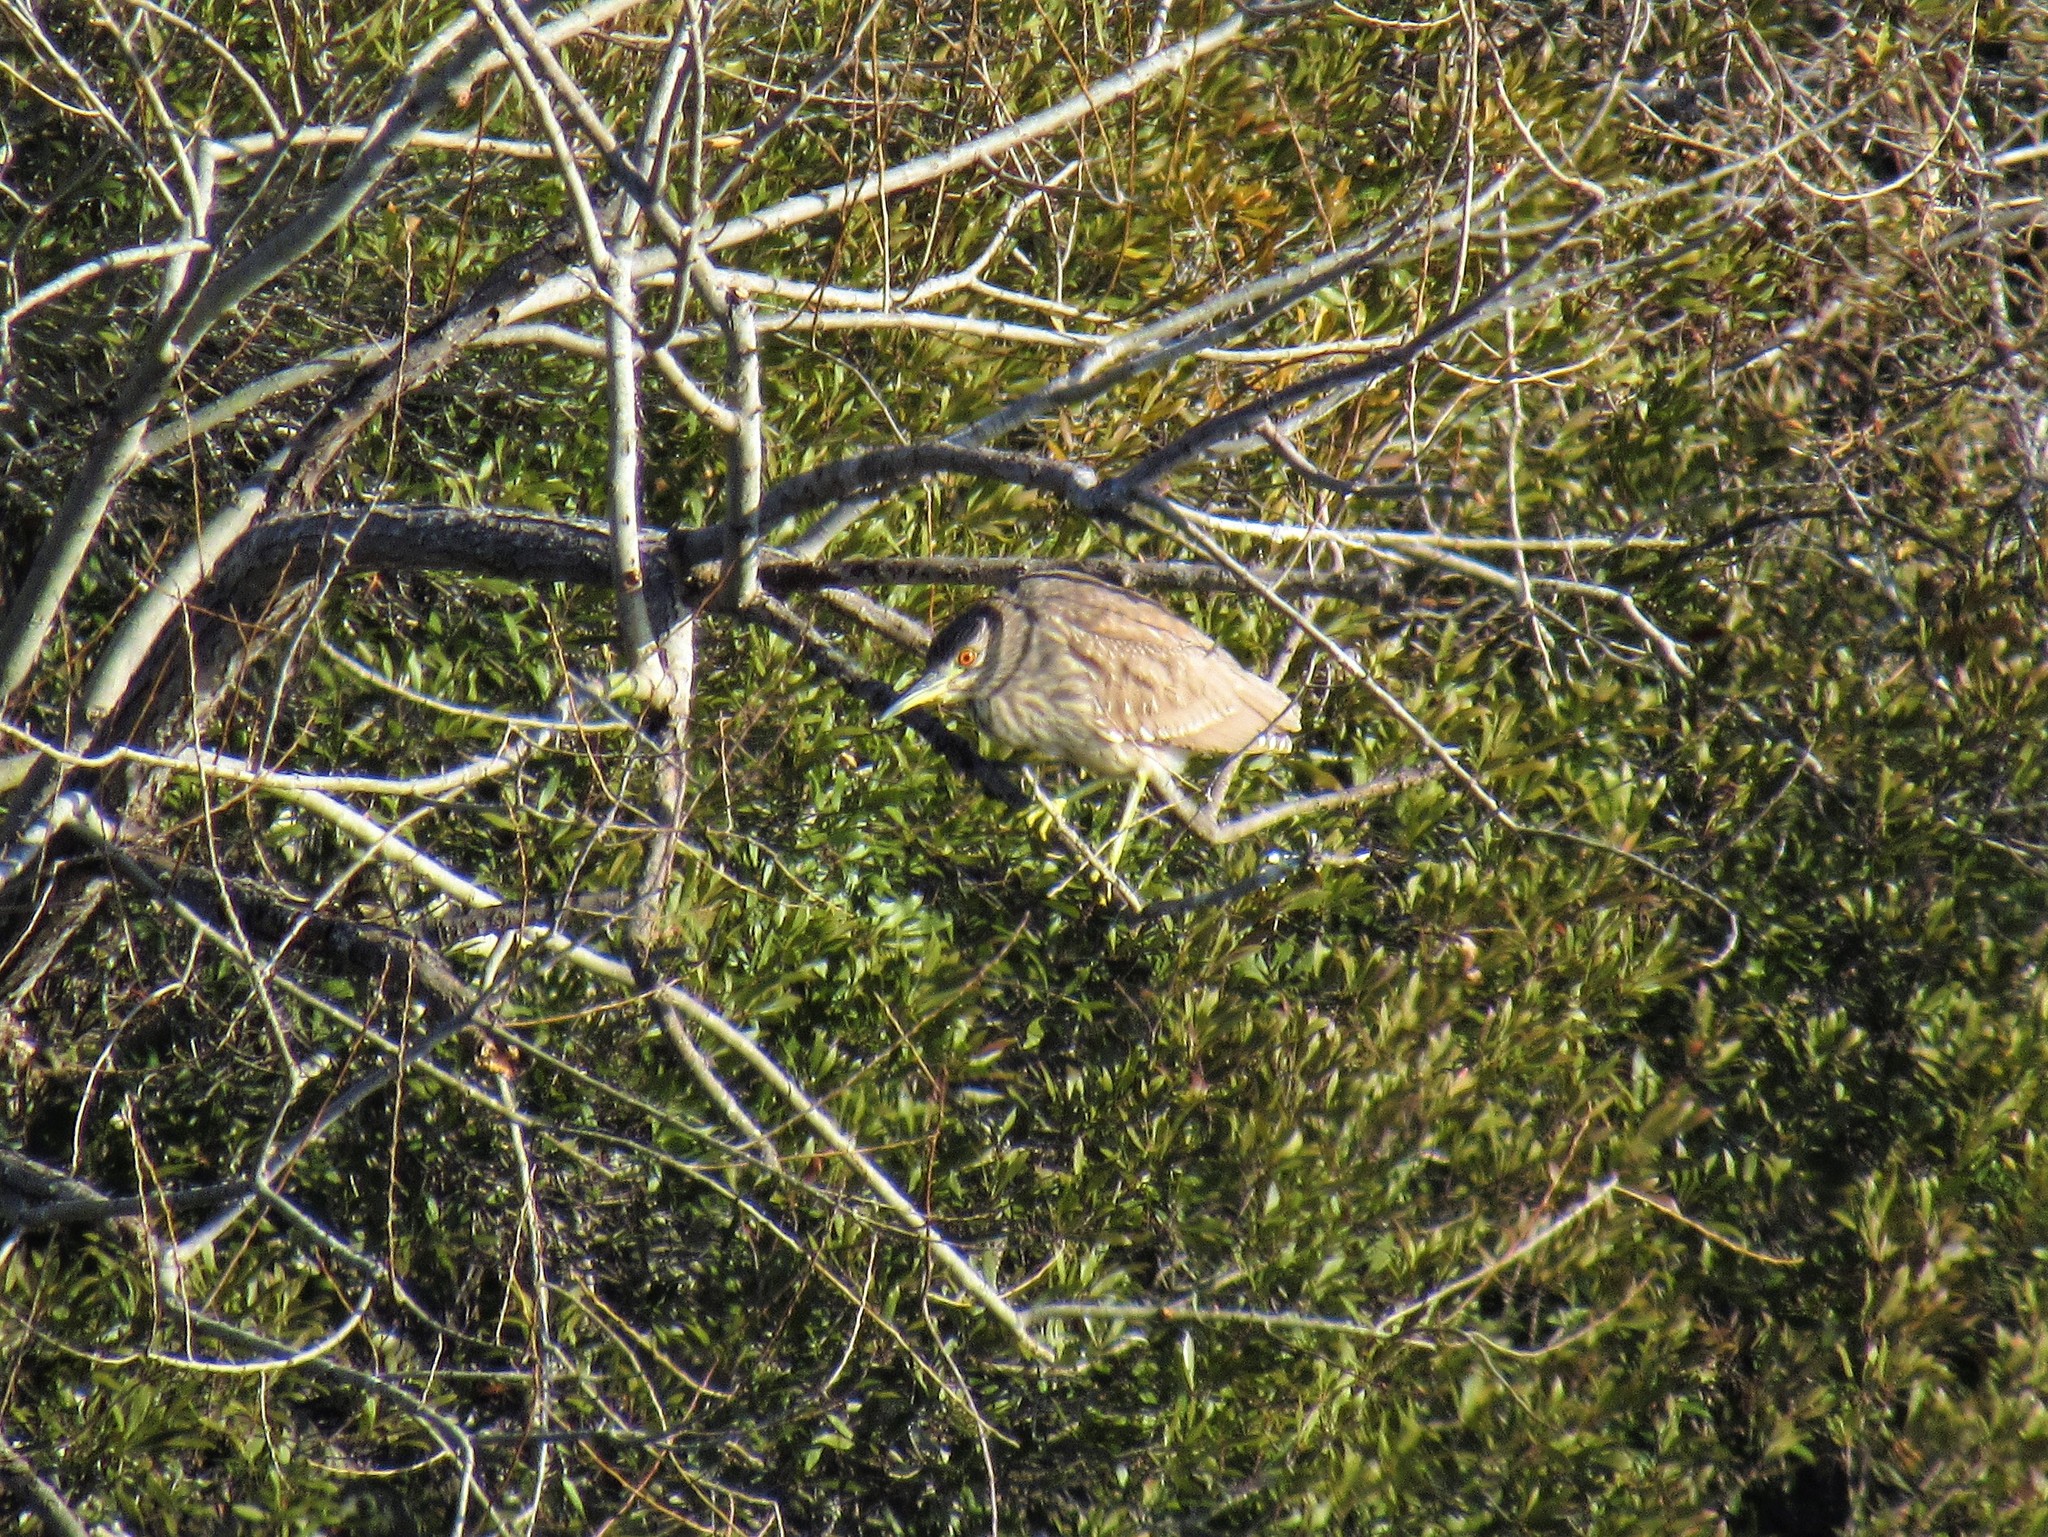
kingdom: Animalia
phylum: Chordata
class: Aves
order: Pelecaniformes
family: Ardeidae
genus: Nycticorax
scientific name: Nycticorax nycticorax
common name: Black-crowned night heron
